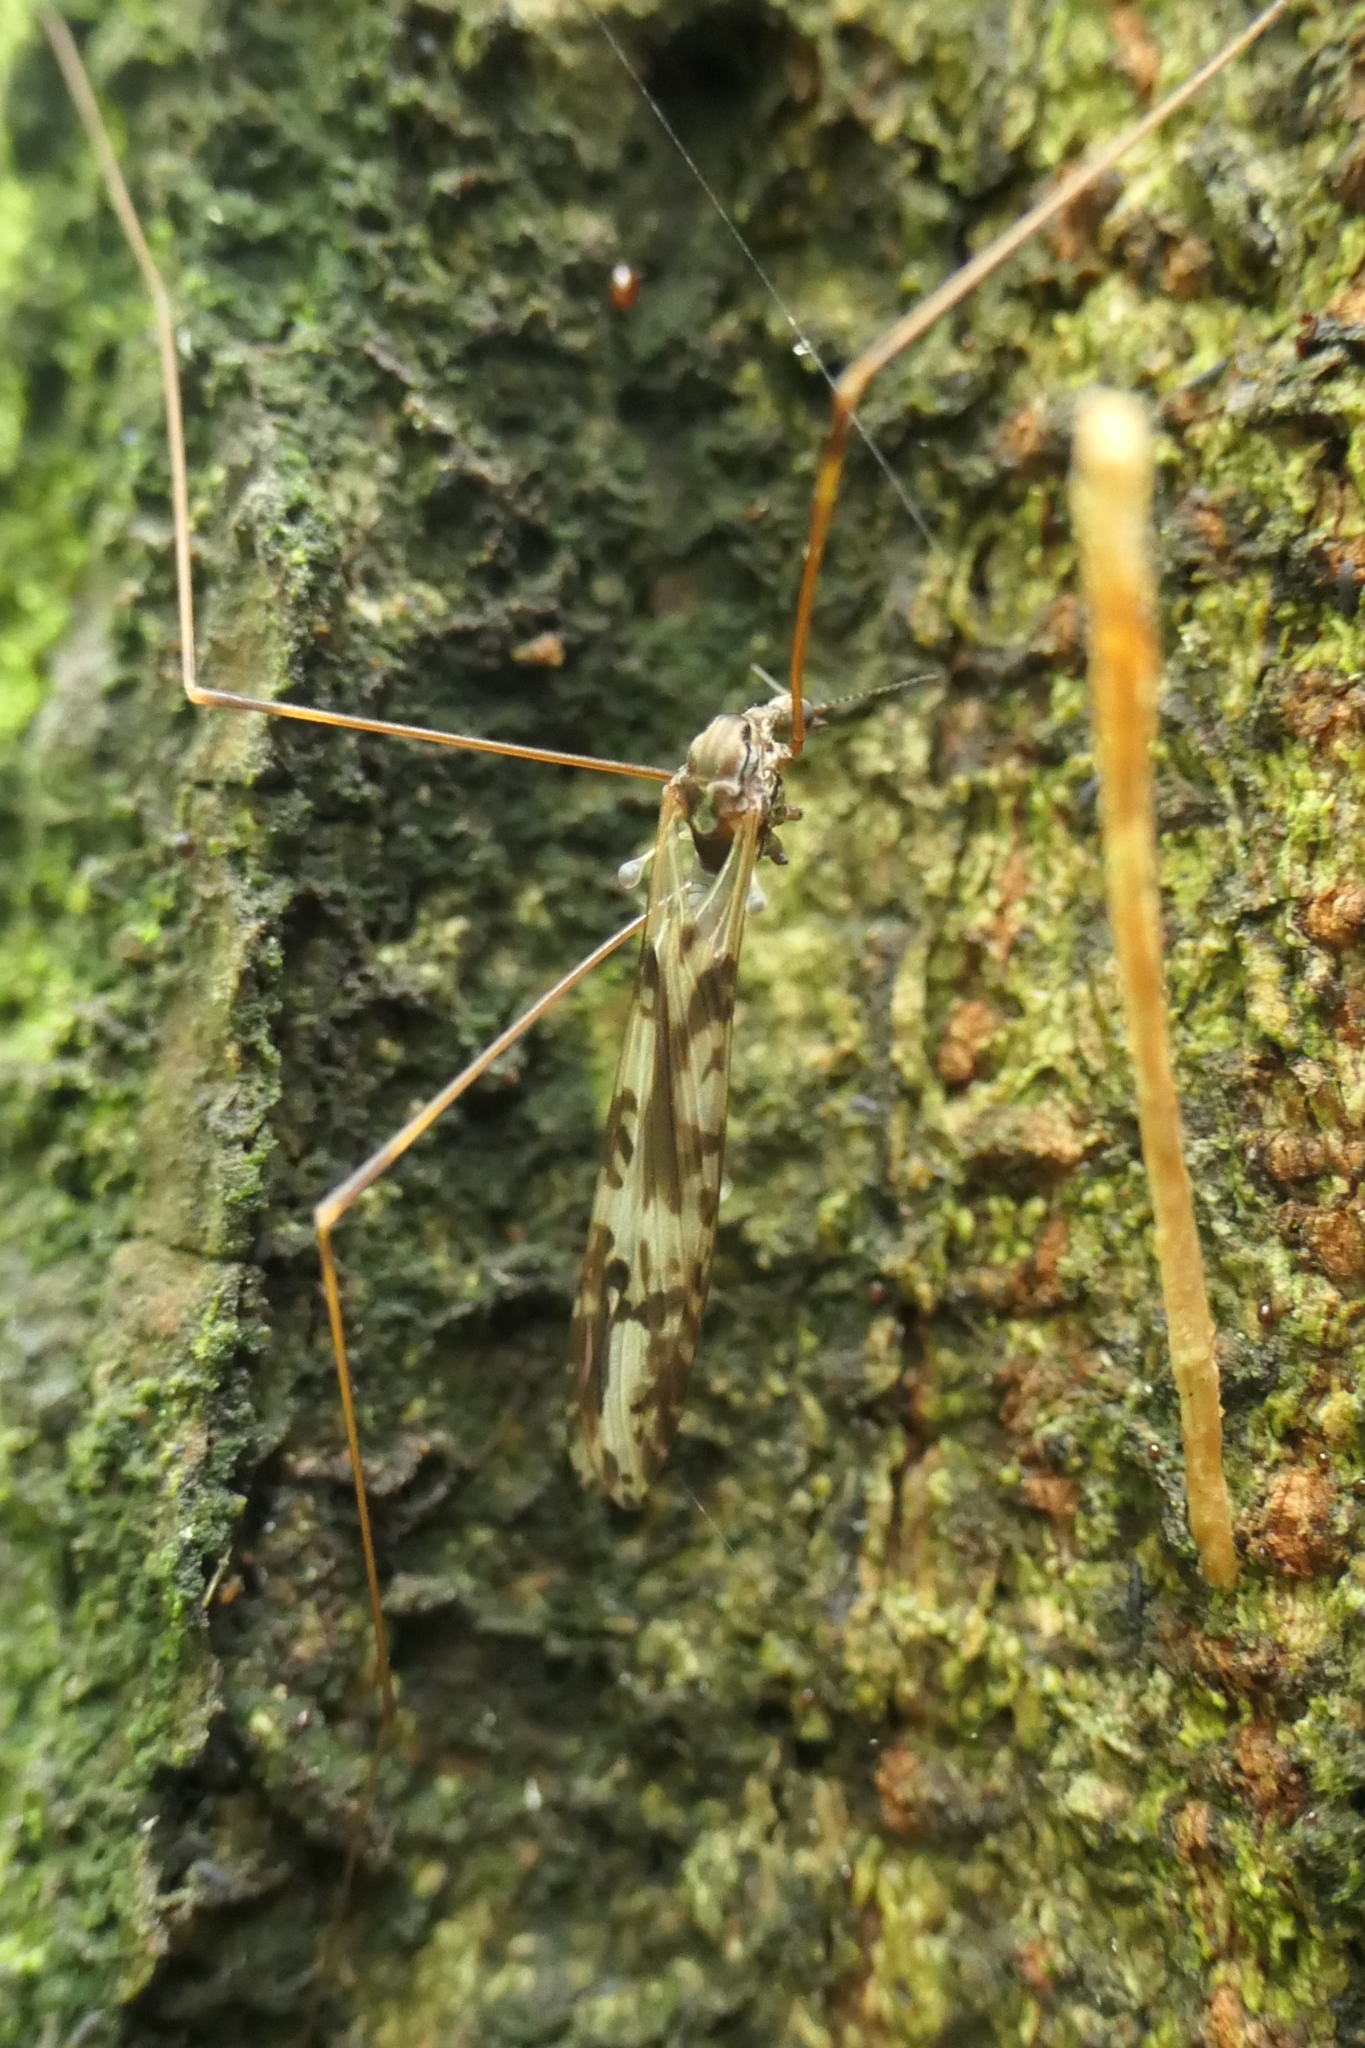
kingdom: Animalia
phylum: Arthropoda
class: Insecta
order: Diptera
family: Limoniidae
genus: Discobola
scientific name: Discobola dohrni
